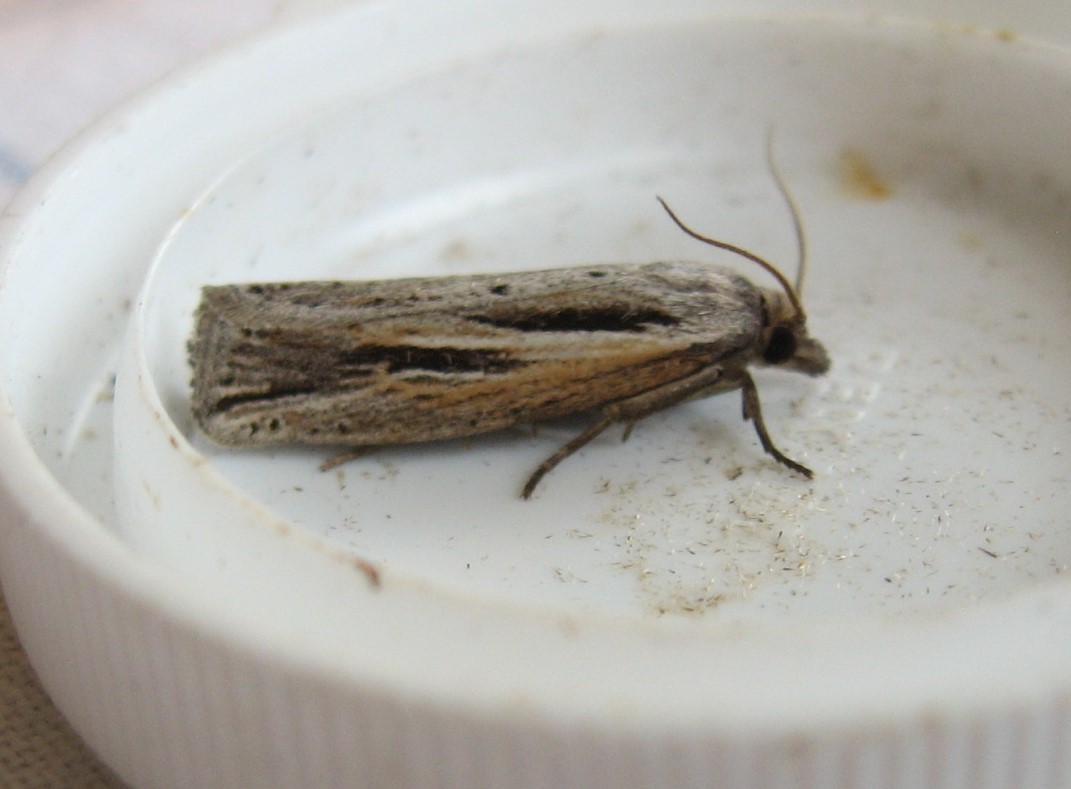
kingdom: Animalia
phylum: Arthropoda
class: Insecta
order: Lepidoptera
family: Tortricidae
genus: Eucosma
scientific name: Eucosma bilineana
